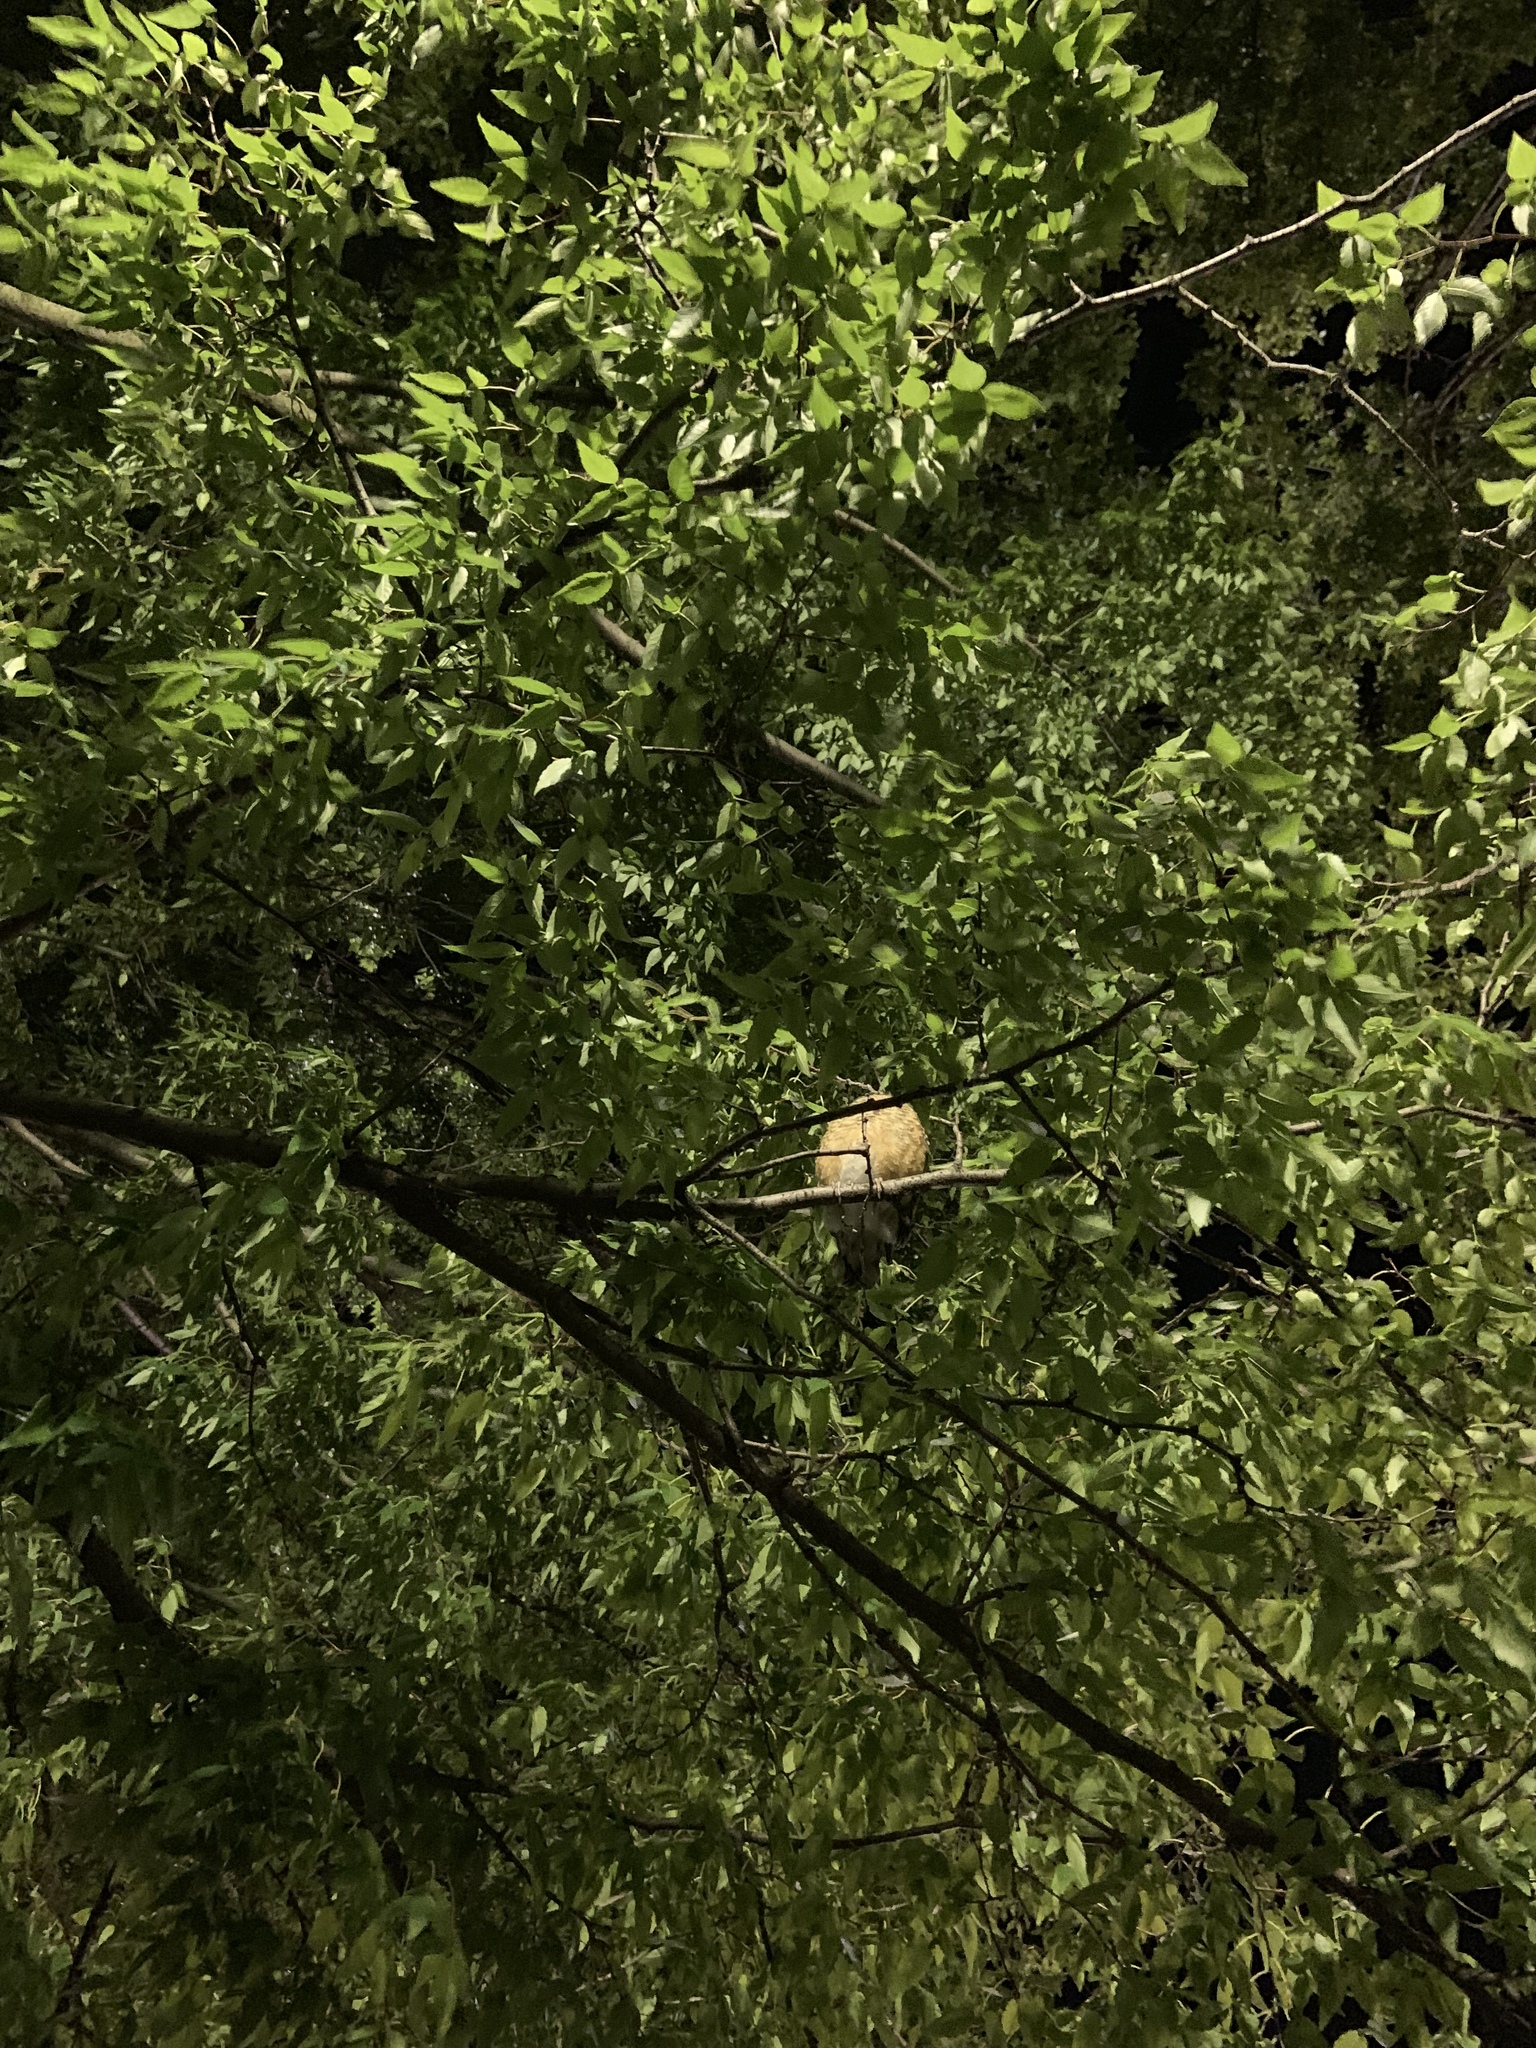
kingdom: Animalia
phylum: Chordata
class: Aves
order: Passeriformes
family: Turdidae
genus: Turdus
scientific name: Turdus migratorius
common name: American robin
